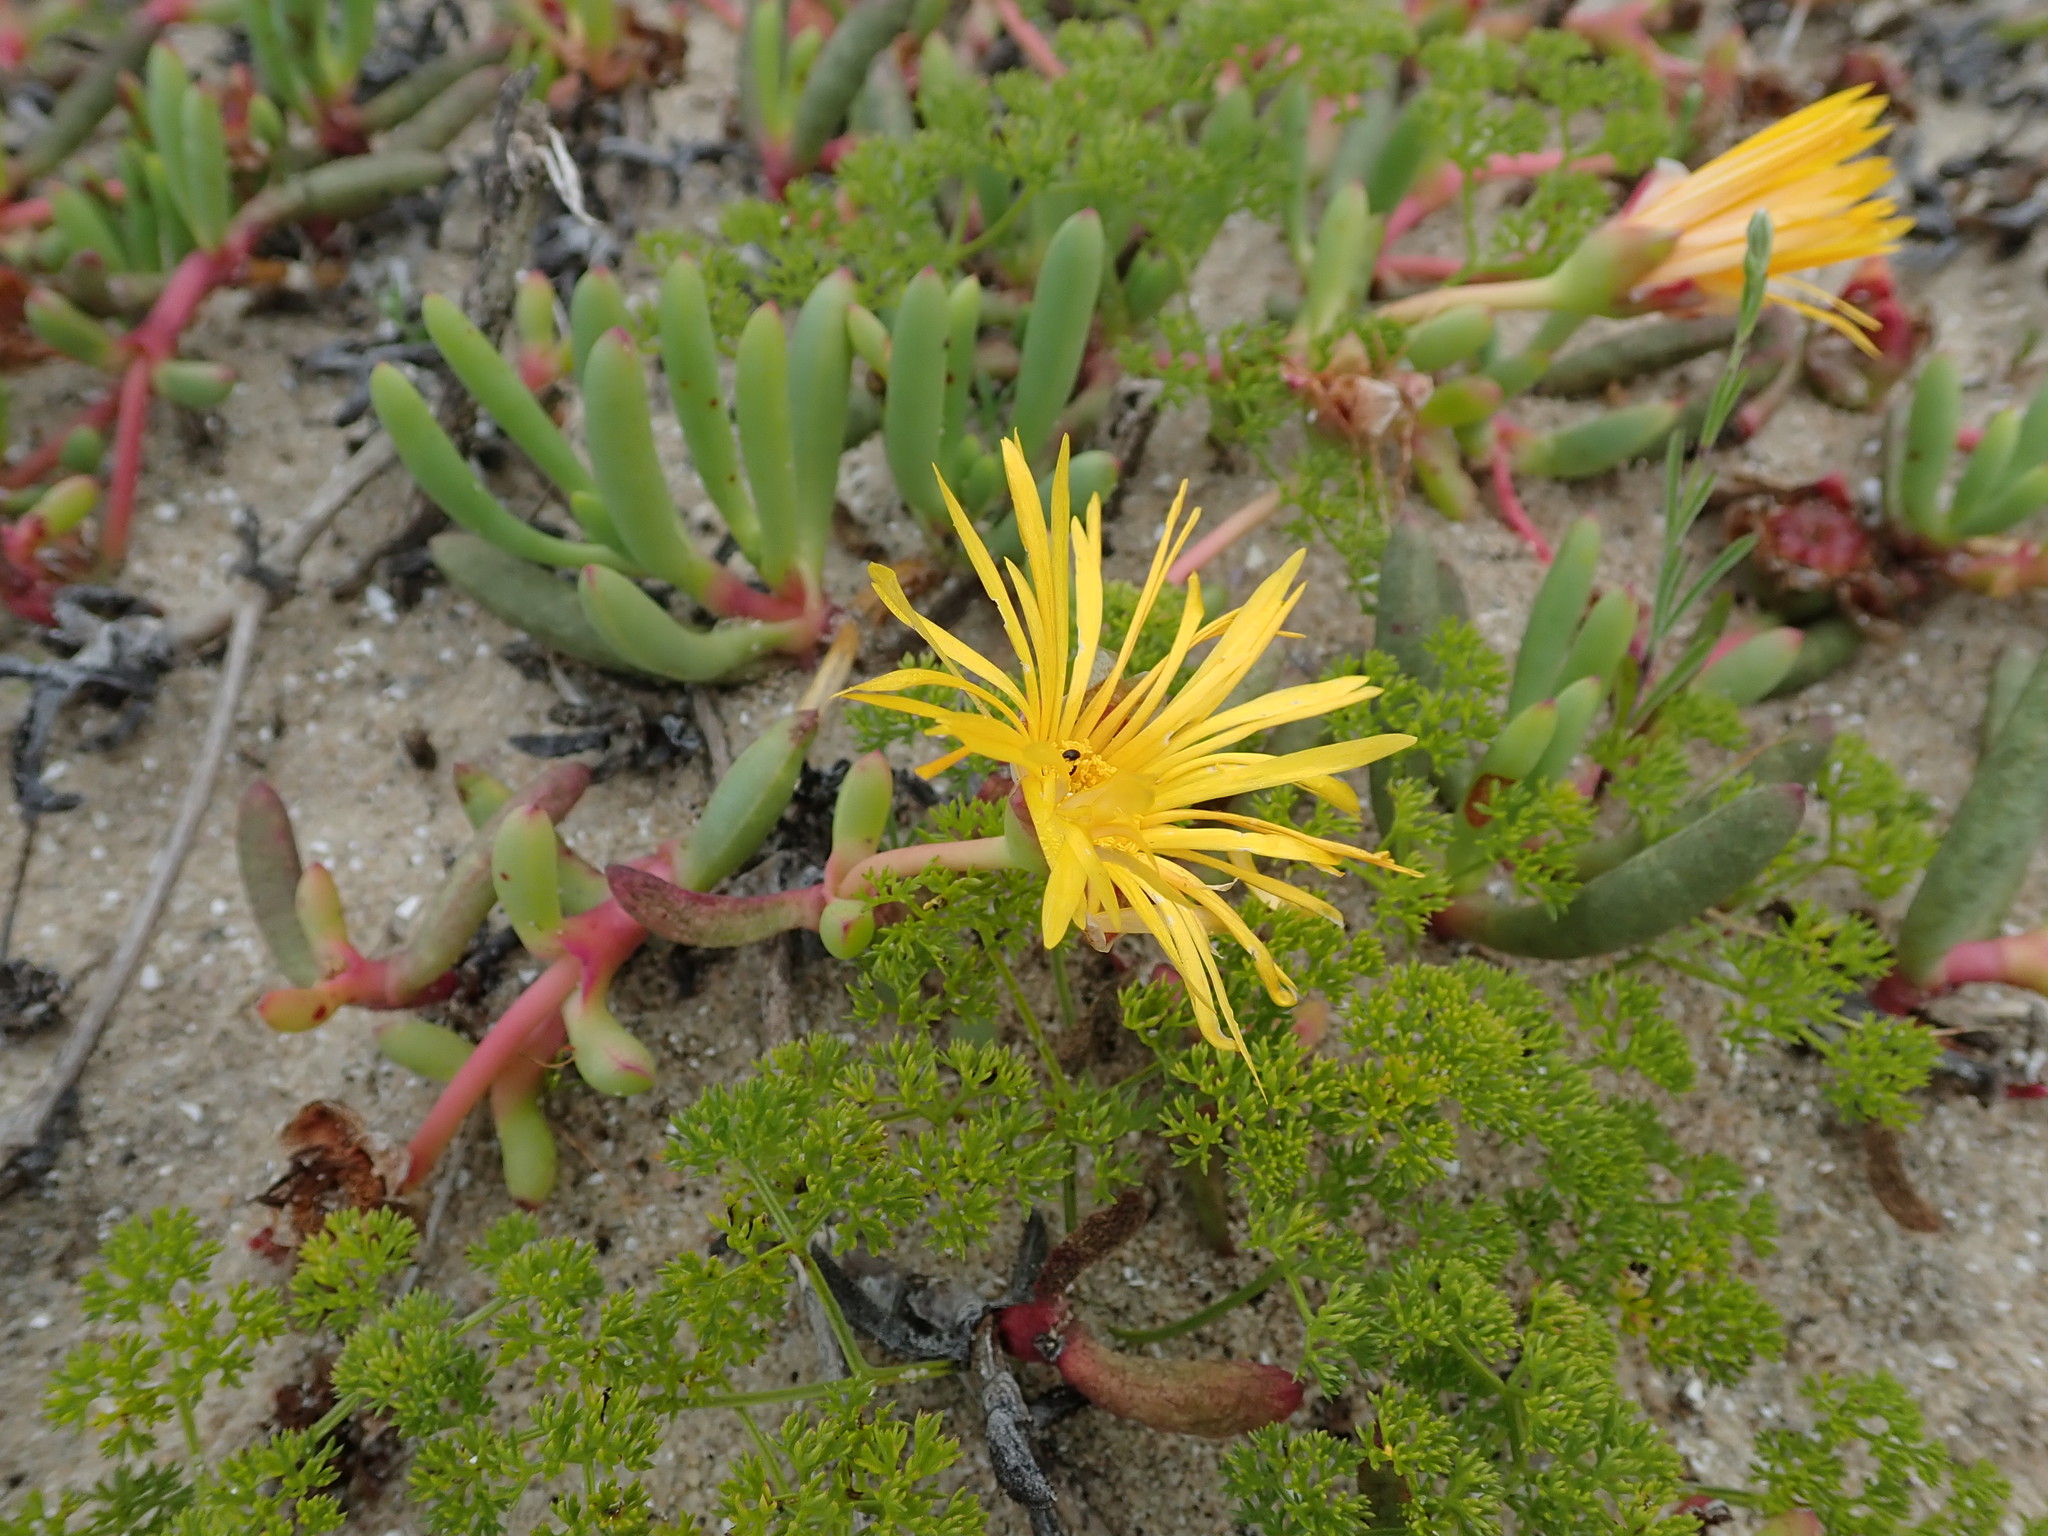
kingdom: Plantae
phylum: Tracheophyta
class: Magnoliopsida
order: Caryophyllales
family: Aizoaceae
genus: Jordaaniella
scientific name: Jordaaniella dubia
